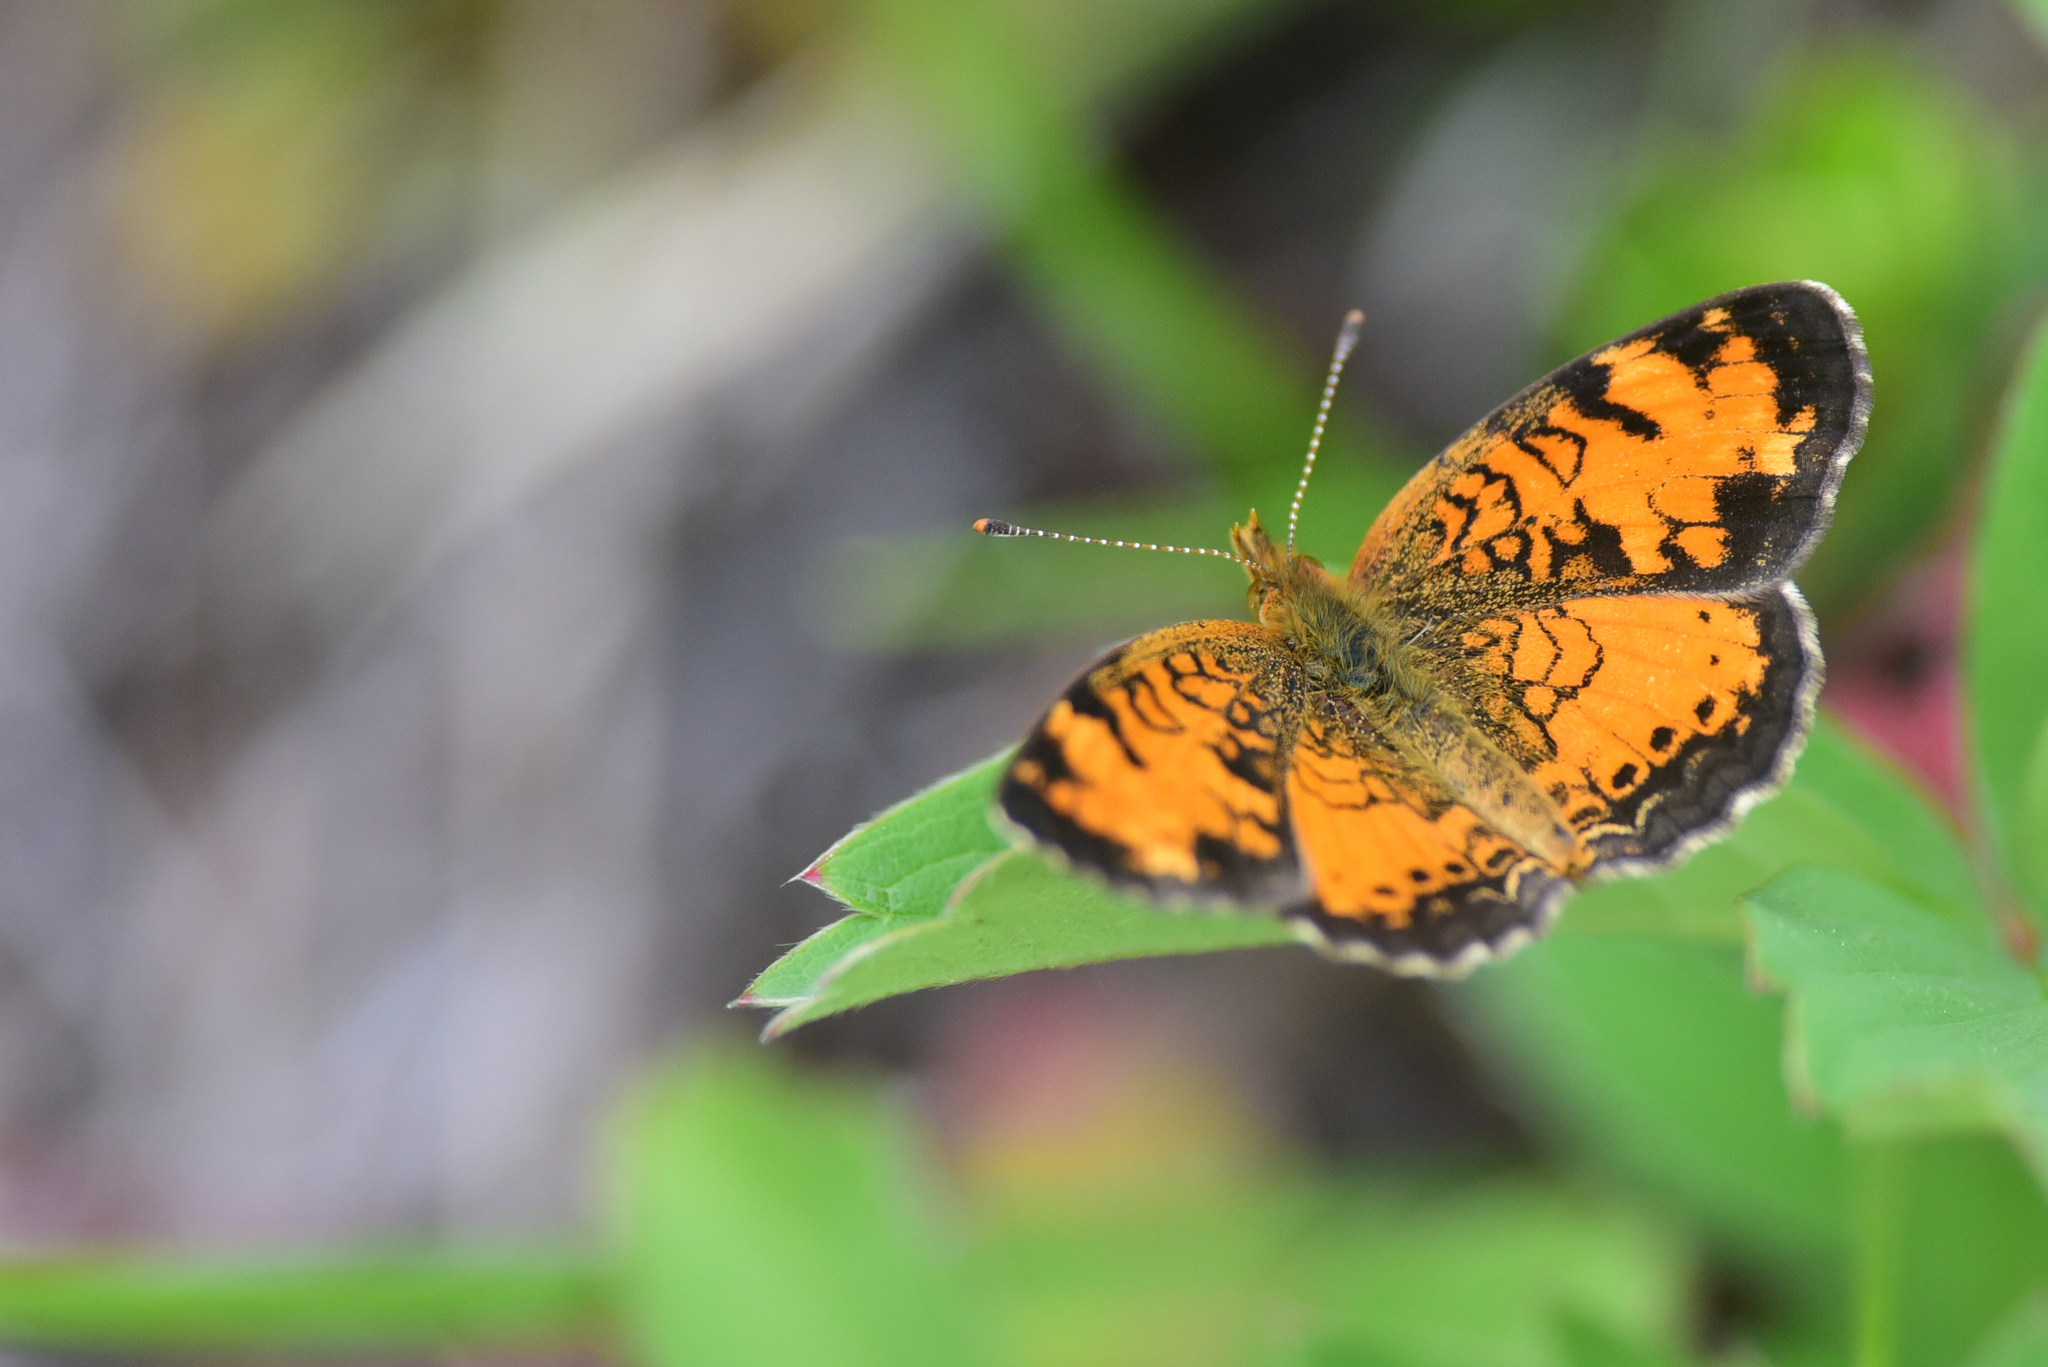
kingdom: Animalia
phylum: Arthropoda
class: Insecta
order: Lepidoptera
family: Nymphalidae
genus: Phyciodes
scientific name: Phyciodes tharos
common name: Pearl crescent
